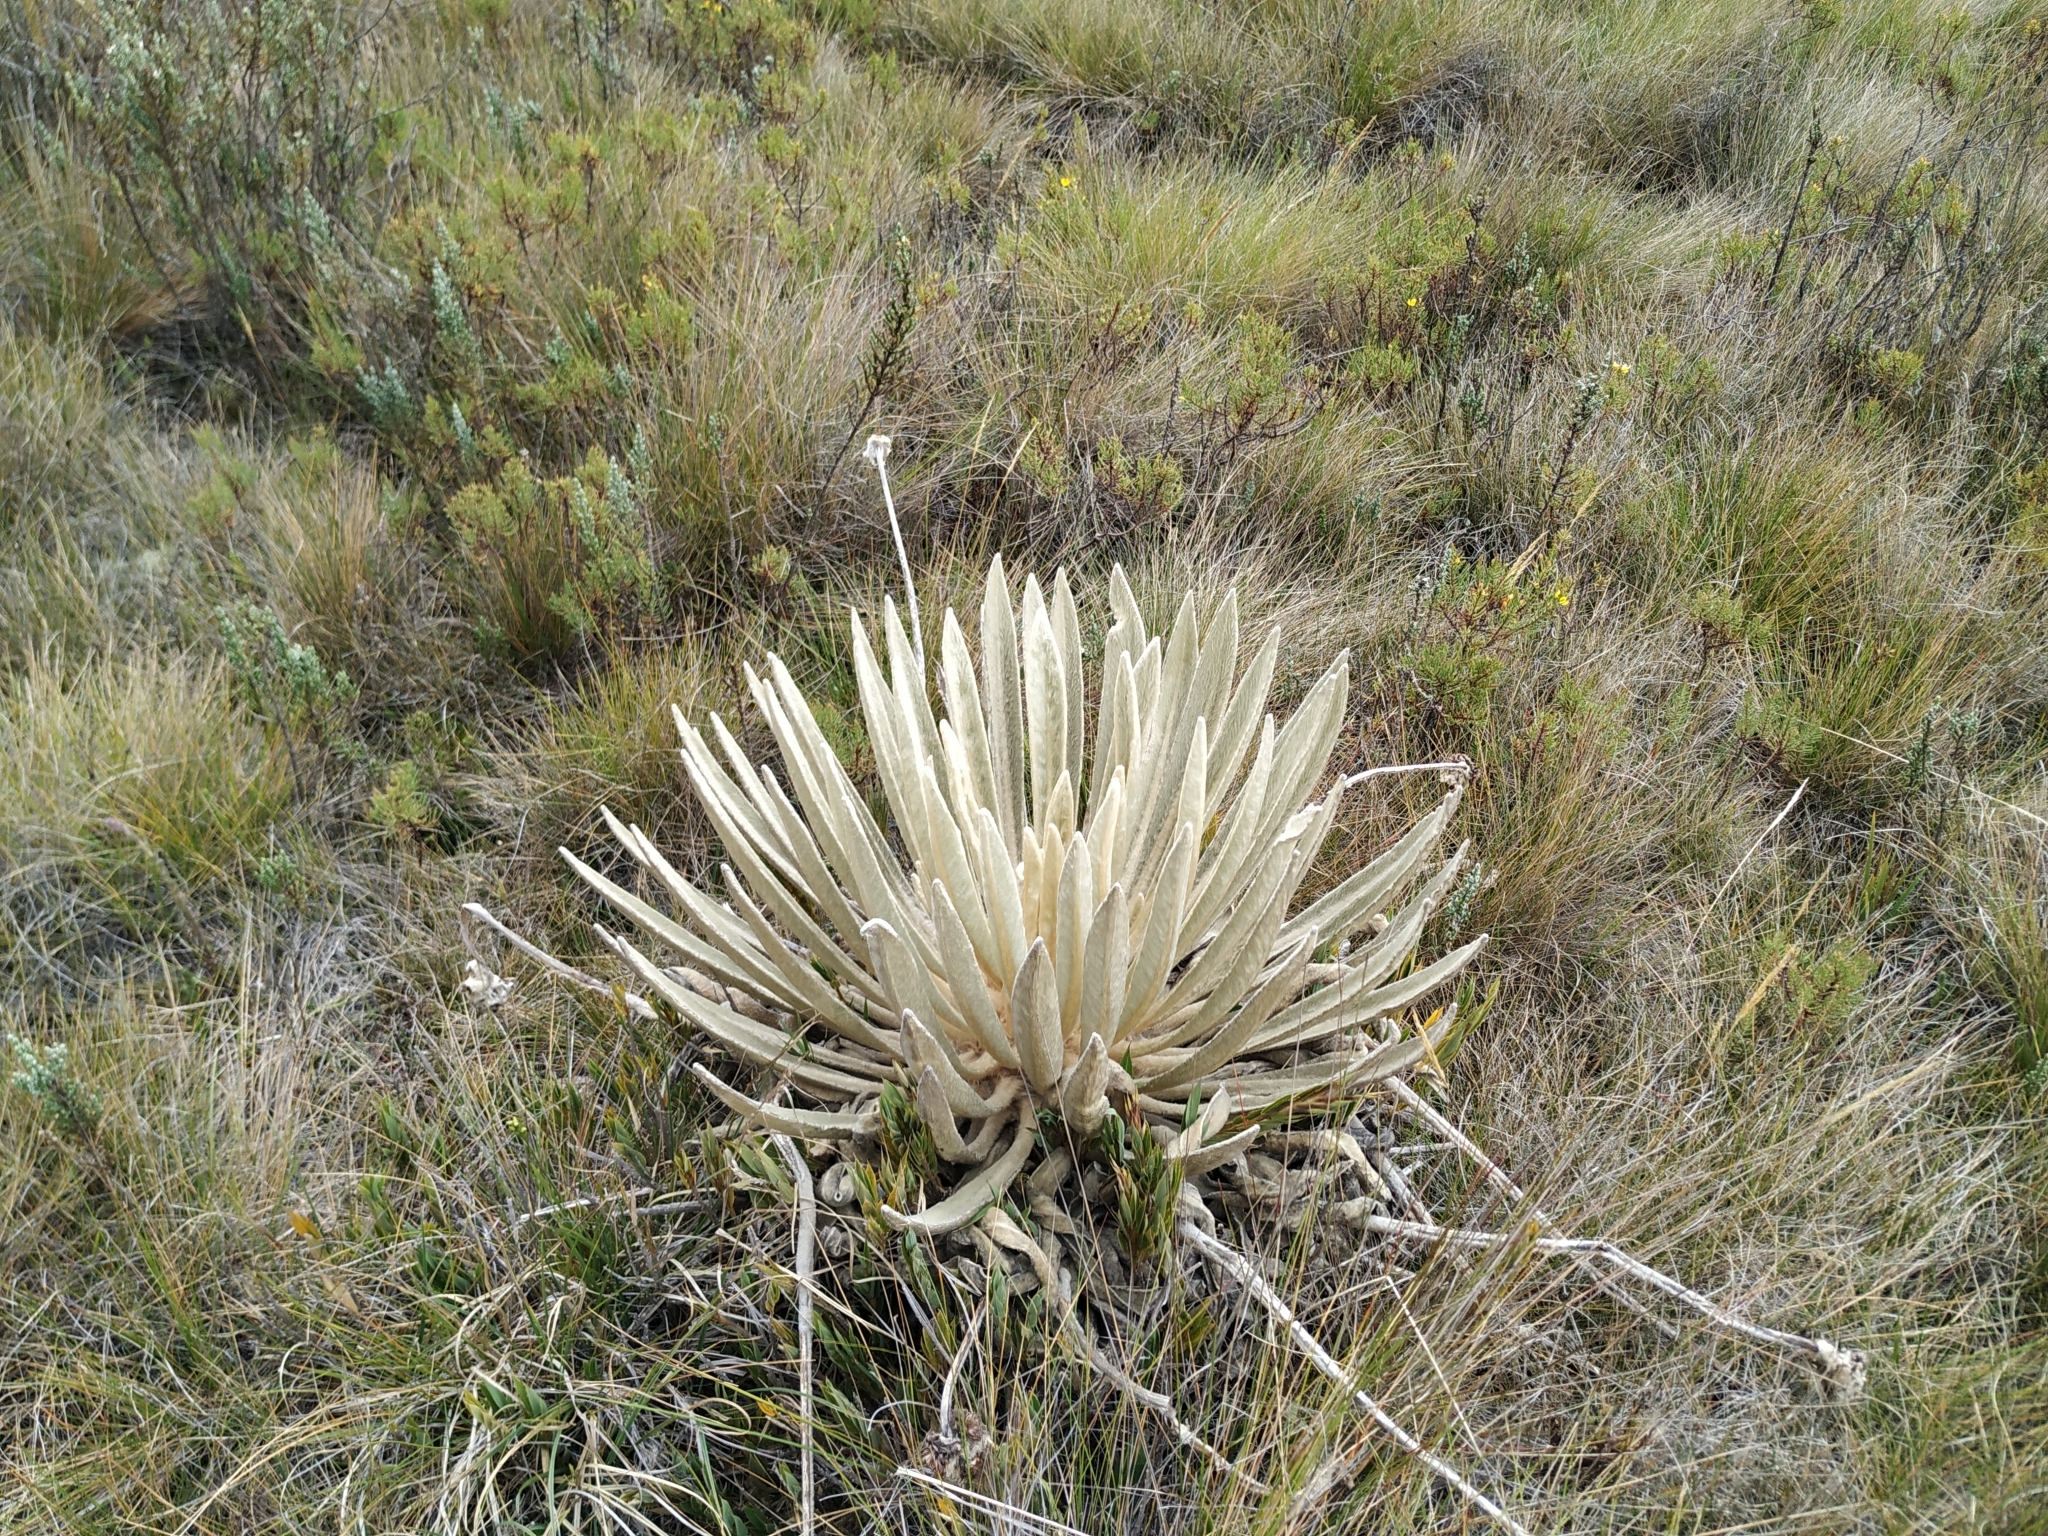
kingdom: Plantae
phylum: Tracheophyta
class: Magnoliopsida
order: Asterales
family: Asteraceae
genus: Espeletia
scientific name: Espeletia congestiflora
